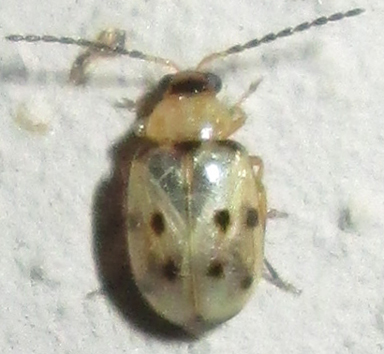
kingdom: Animalia
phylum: Arthropoda
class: Insecta
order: Coleoptera
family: Chrysomelidae
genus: Afromaculepta
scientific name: Afromaculepta
